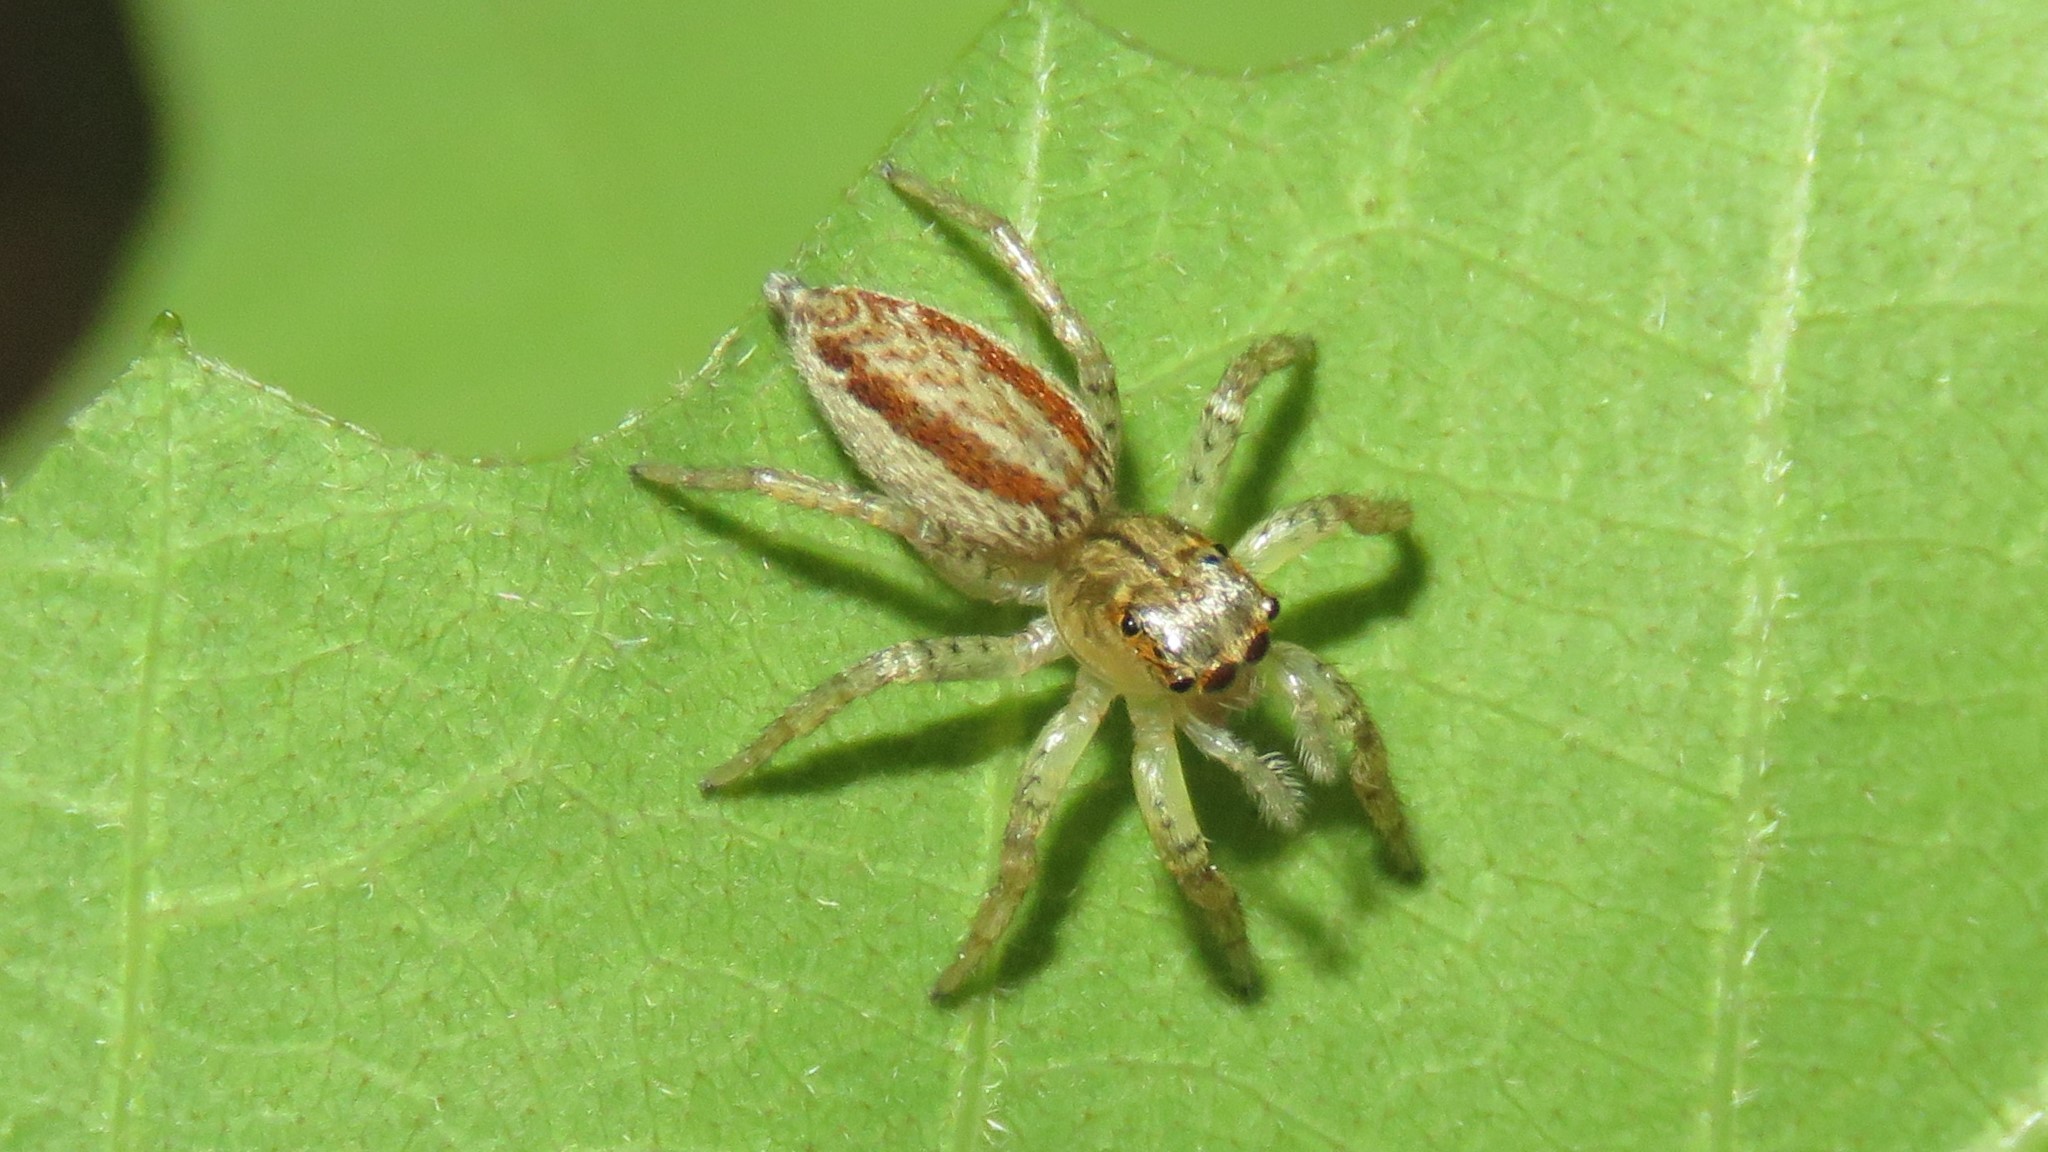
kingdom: Animalia
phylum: Arthropoda
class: Arachnida
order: Araneae
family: Salticidae
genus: Maevia
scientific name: Maevia inclemens
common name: Dimorphic jumper
